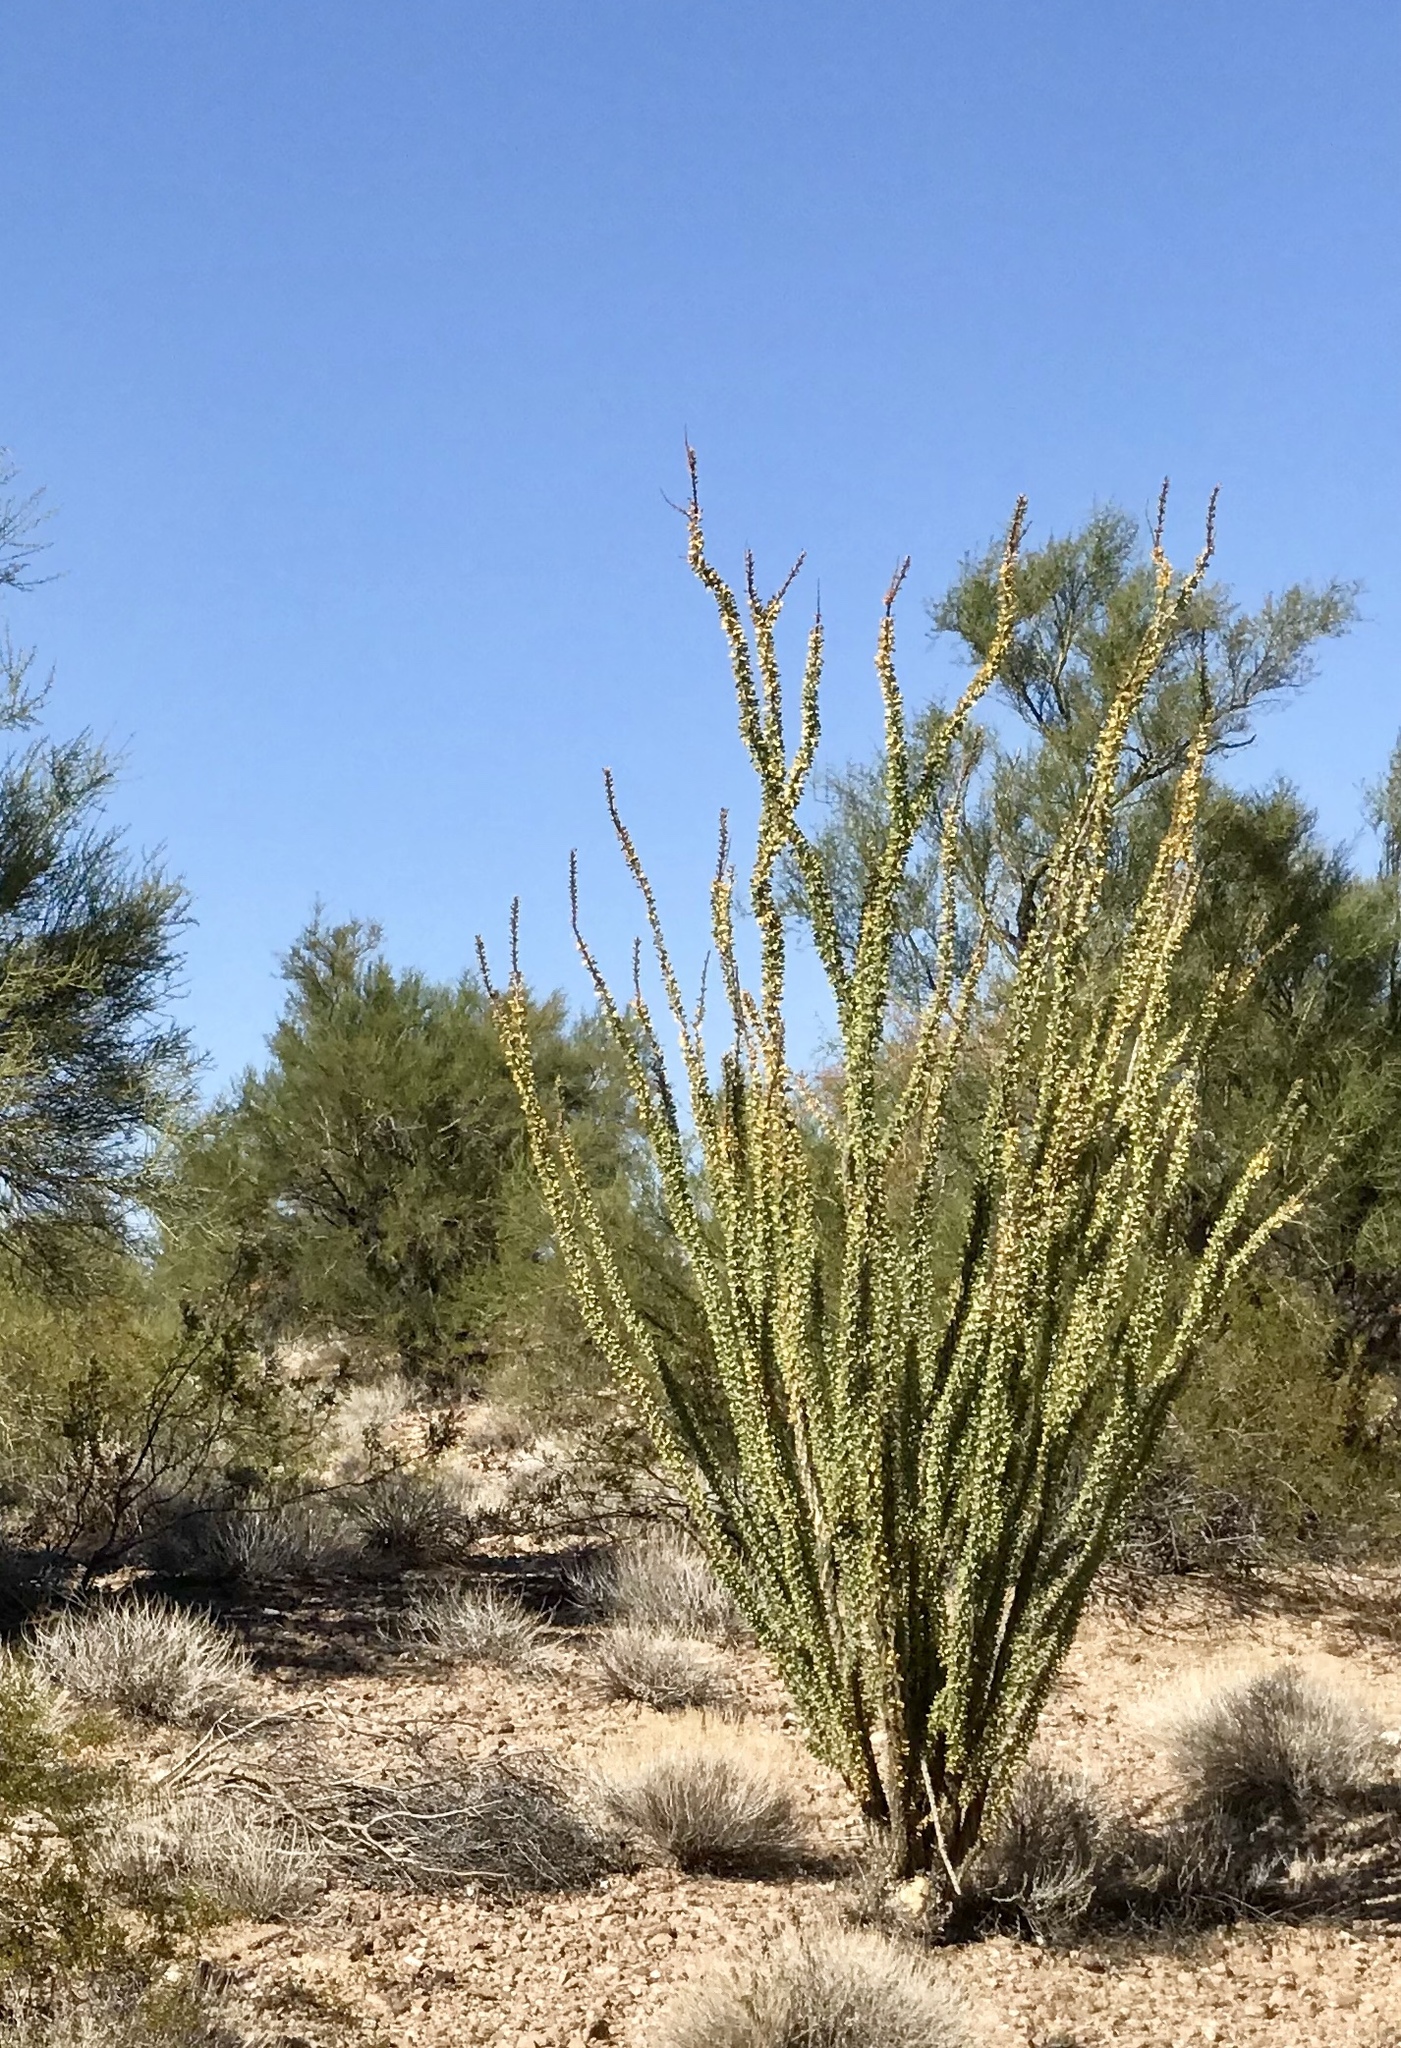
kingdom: Plantae
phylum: Tracheophyta
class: Magnoliopsida
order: Ericales
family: Fouquieriaceae
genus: Fouquieria
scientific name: Fouquieria splendens
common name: Vine-cactus
